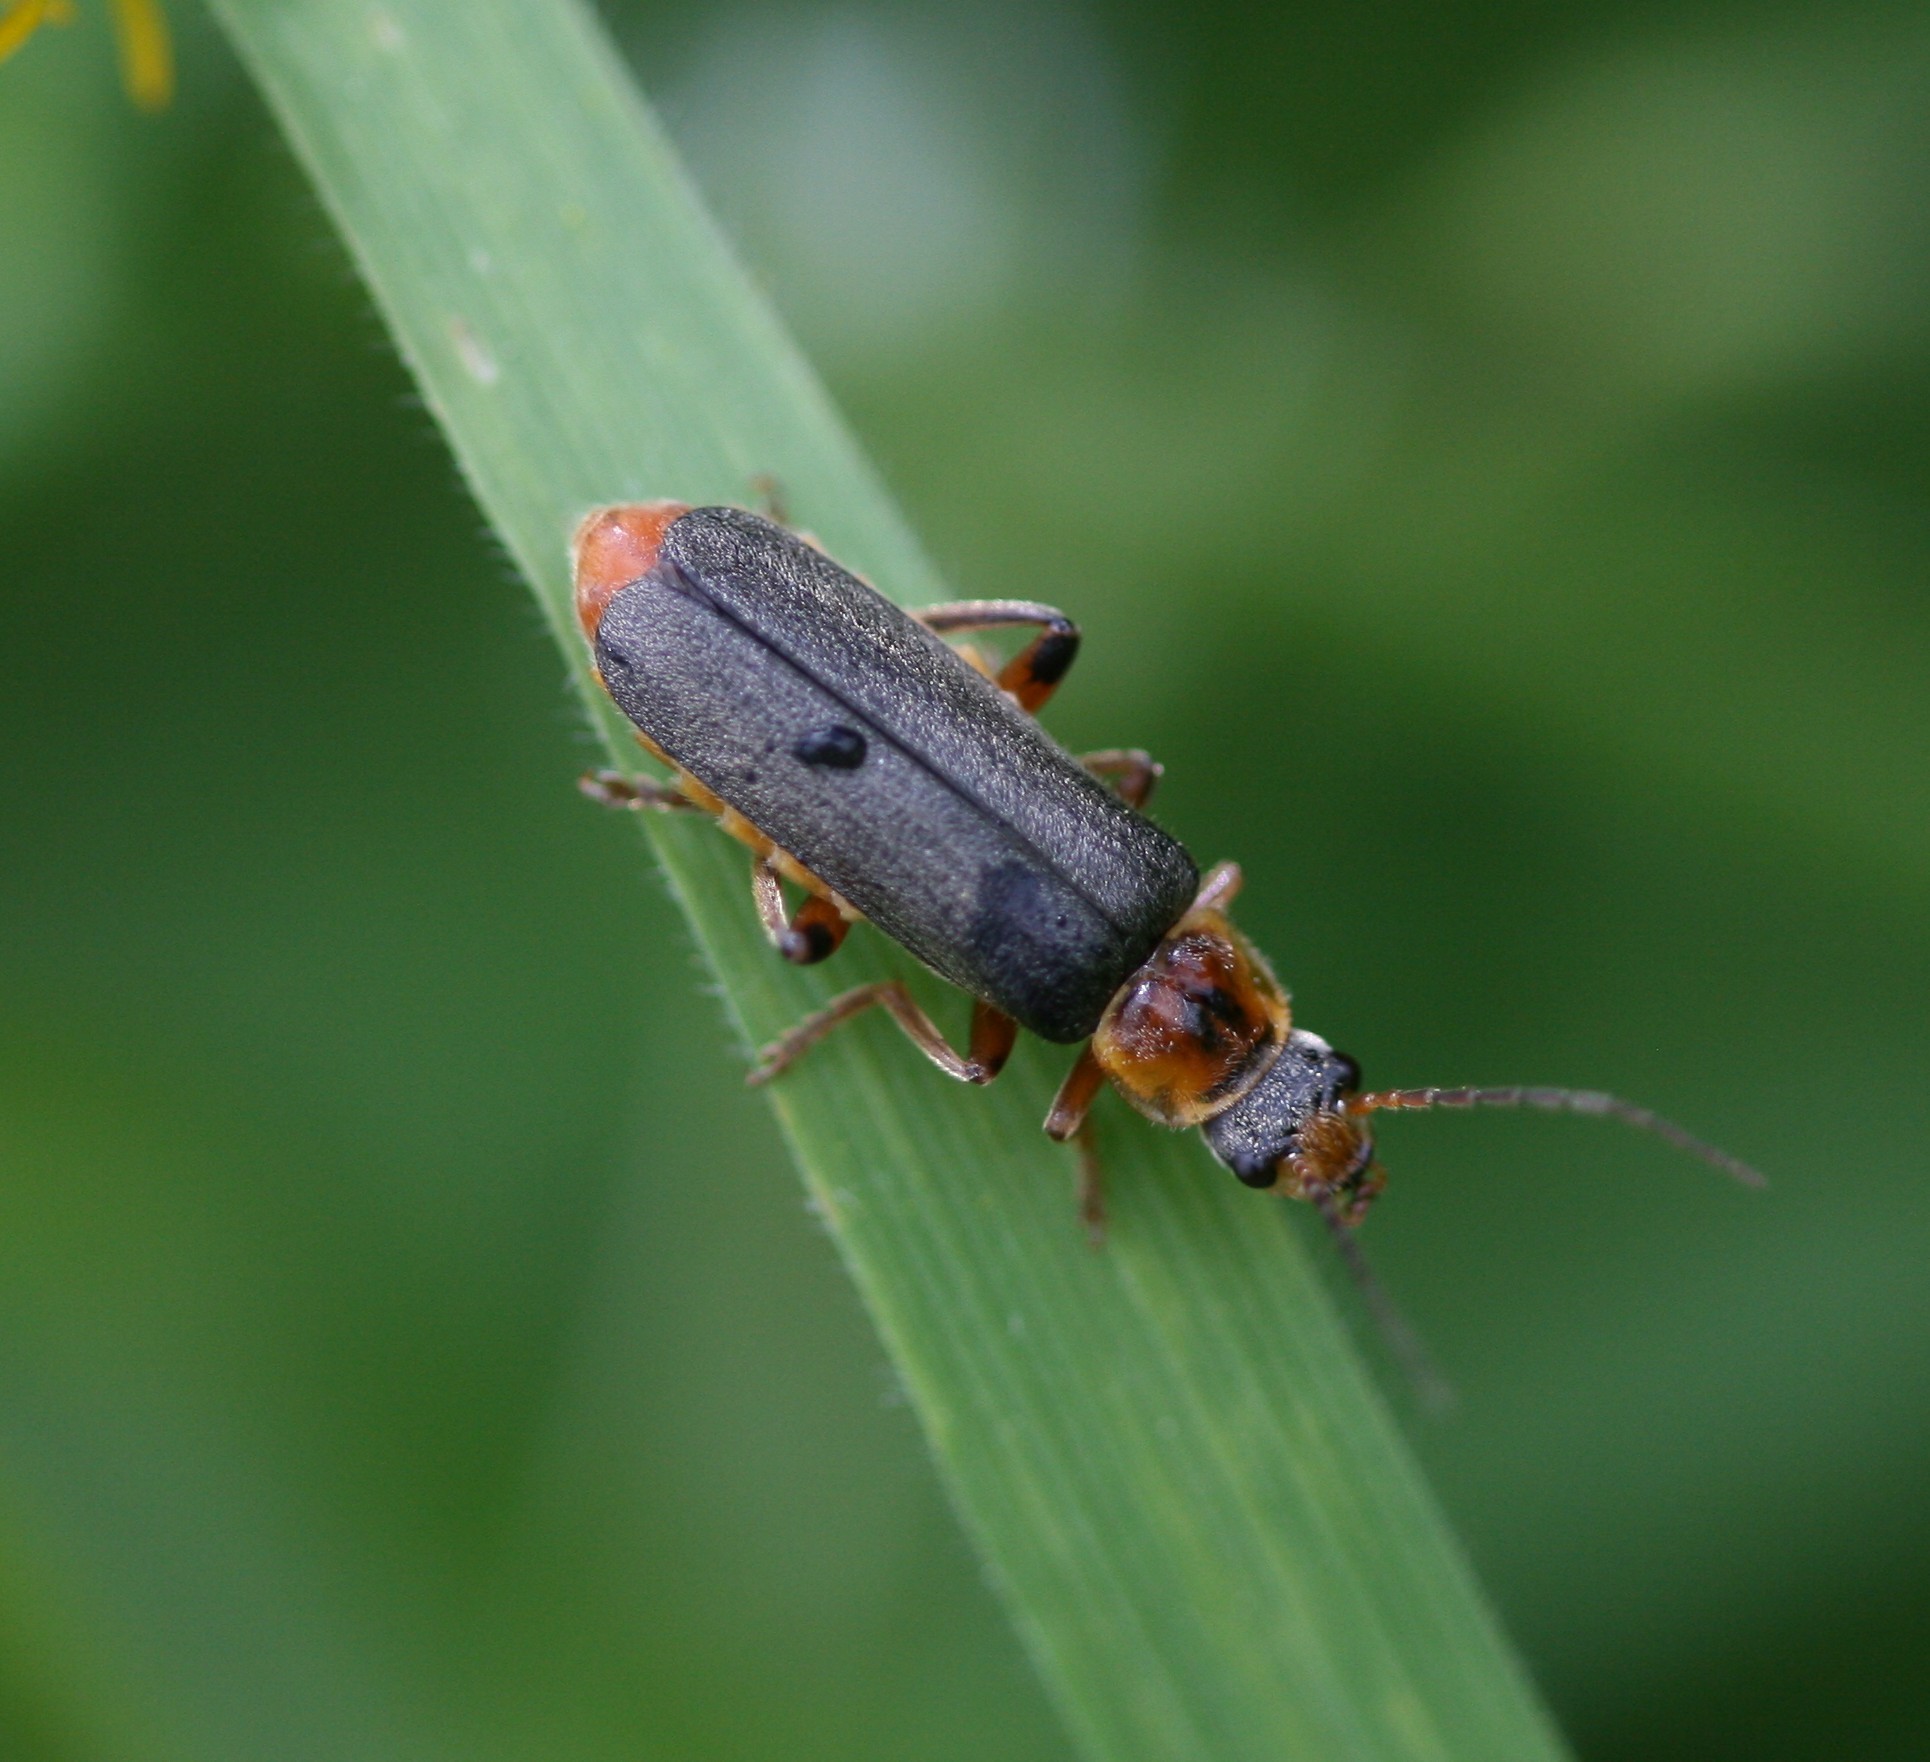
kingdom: Animalia
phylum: Arthropoda
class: Insecta
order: Coleoptera
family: Cantharidae
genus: Cantharis
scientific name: Cantharis nigricans
